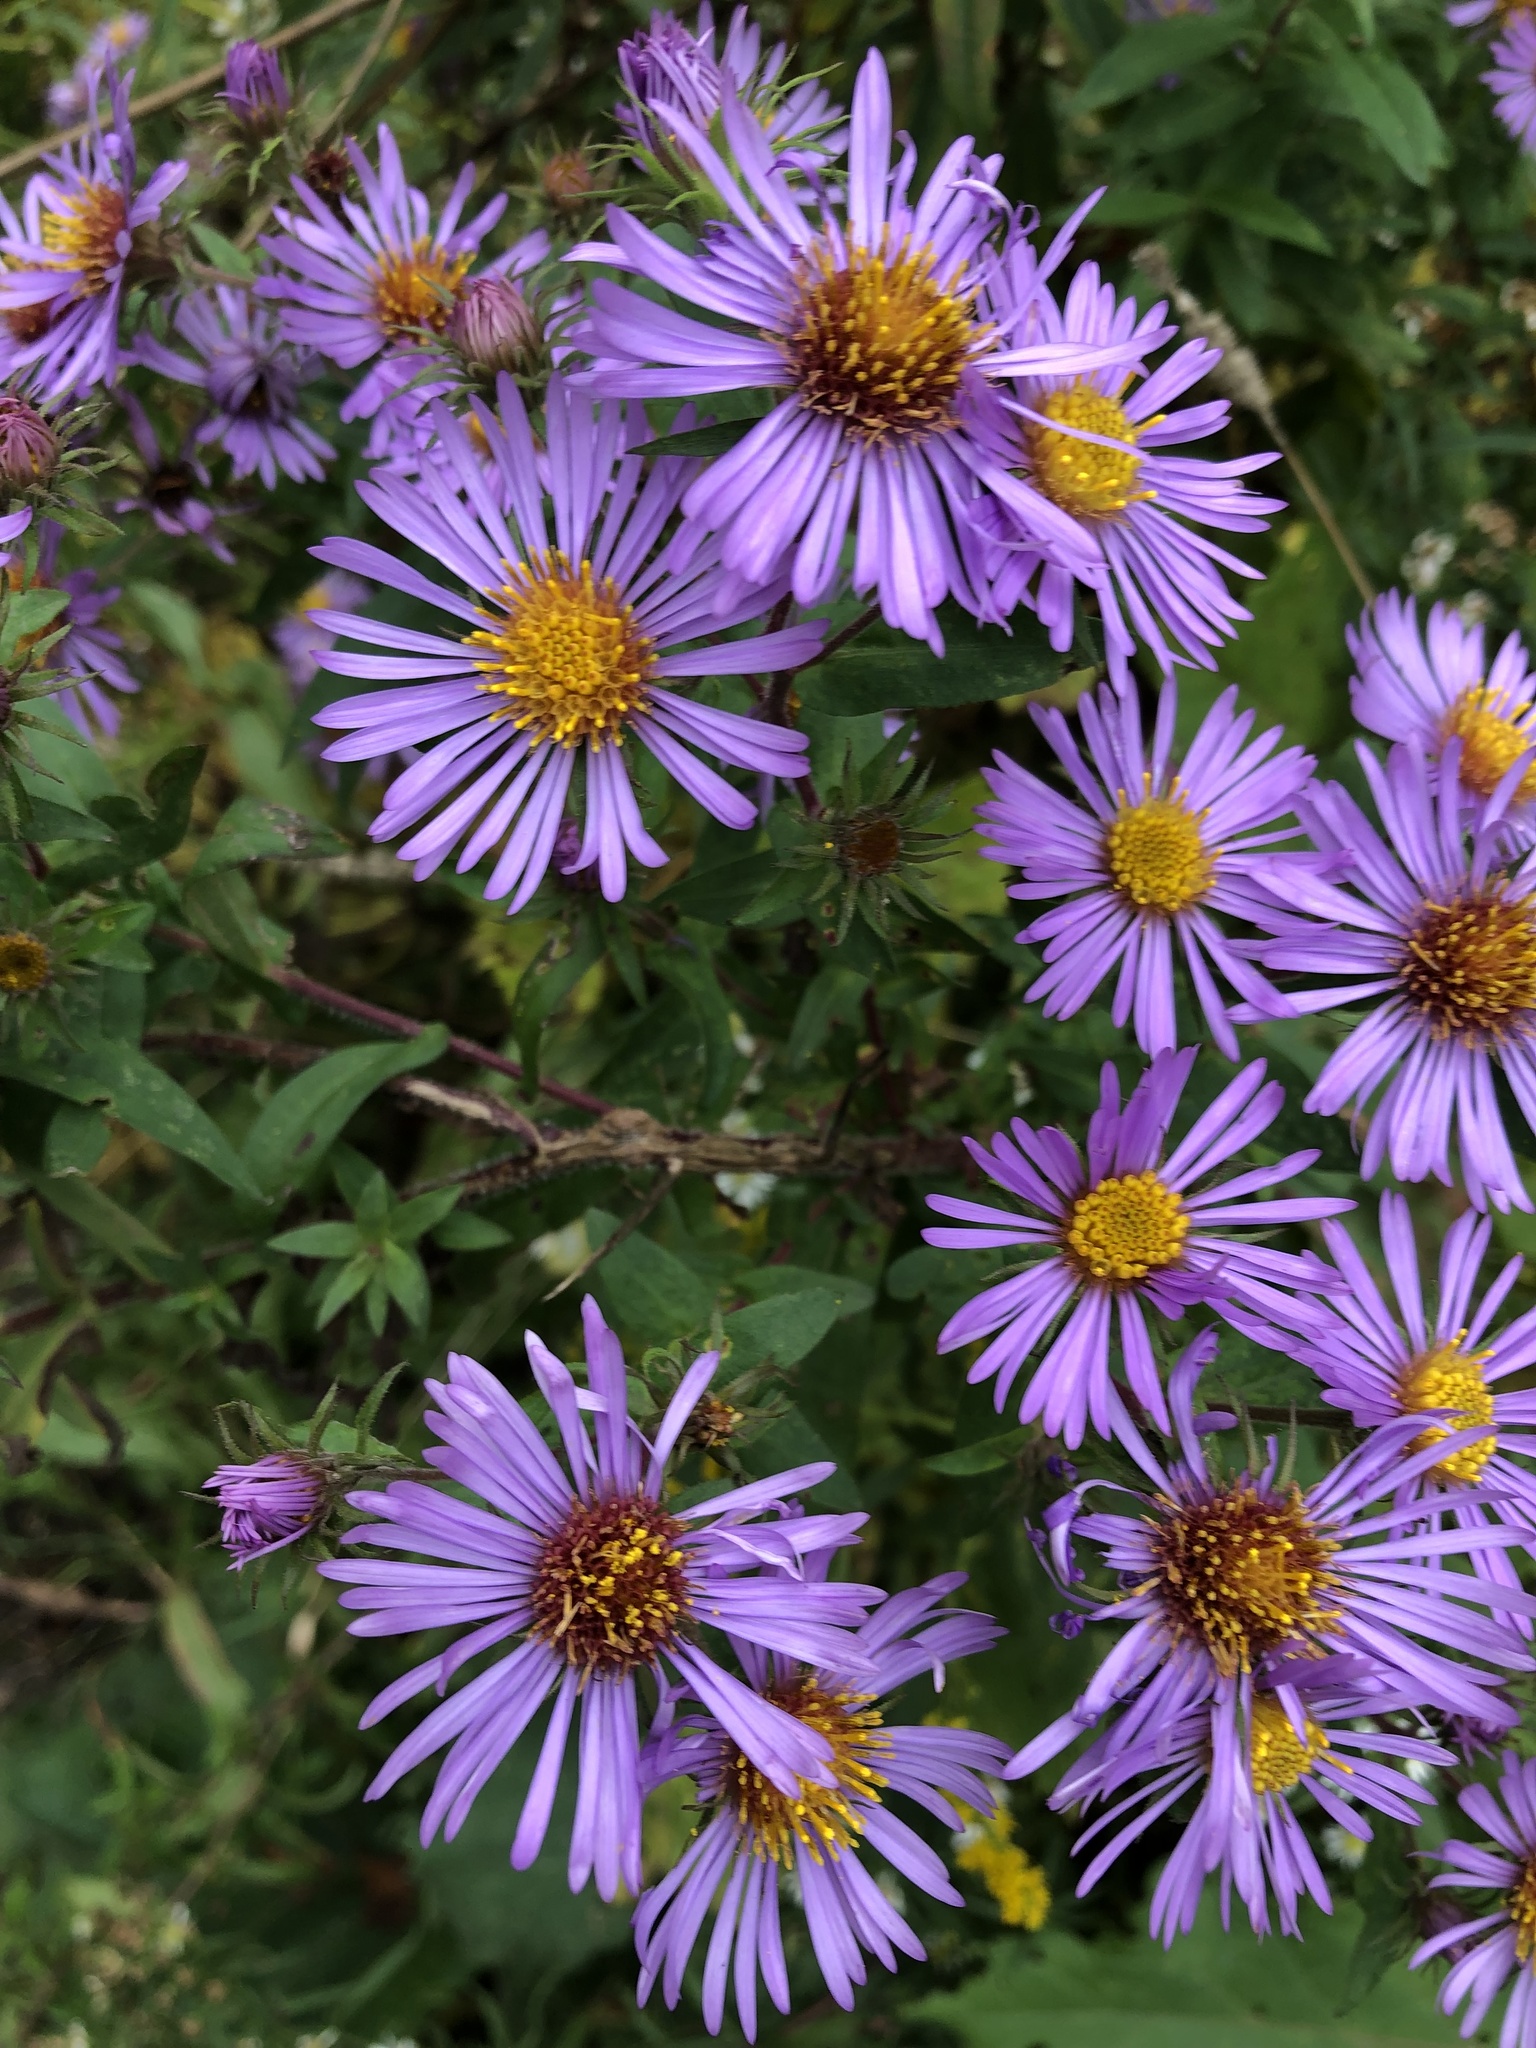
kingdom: Plantae
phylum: Tracheophyta
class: Magnoliopsida
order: Asterales
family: Asteraceae
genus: Symphyotrichum
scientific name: Symphyotrichum novae-angliae
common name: Michaelmas daisy
